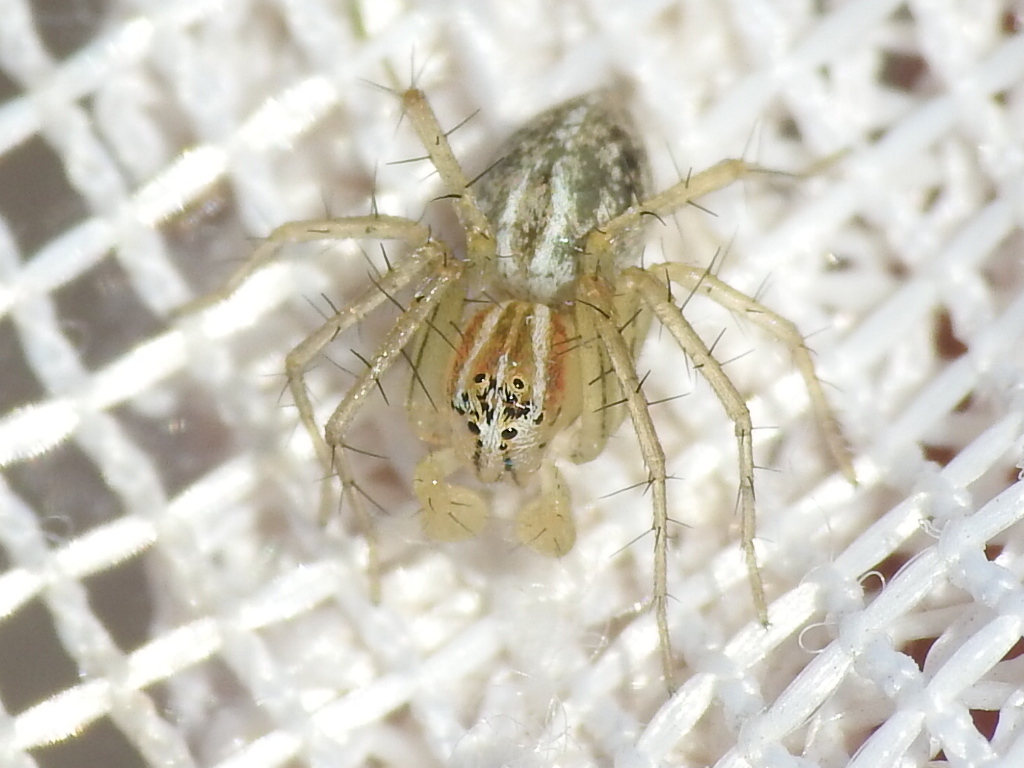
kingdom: Animalia
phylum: Arthropoda
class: Arachnida
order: Araneae
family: Oxyopidae
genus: Oxyopes
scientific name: Oxyopes salticus
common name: Lynx spiders
